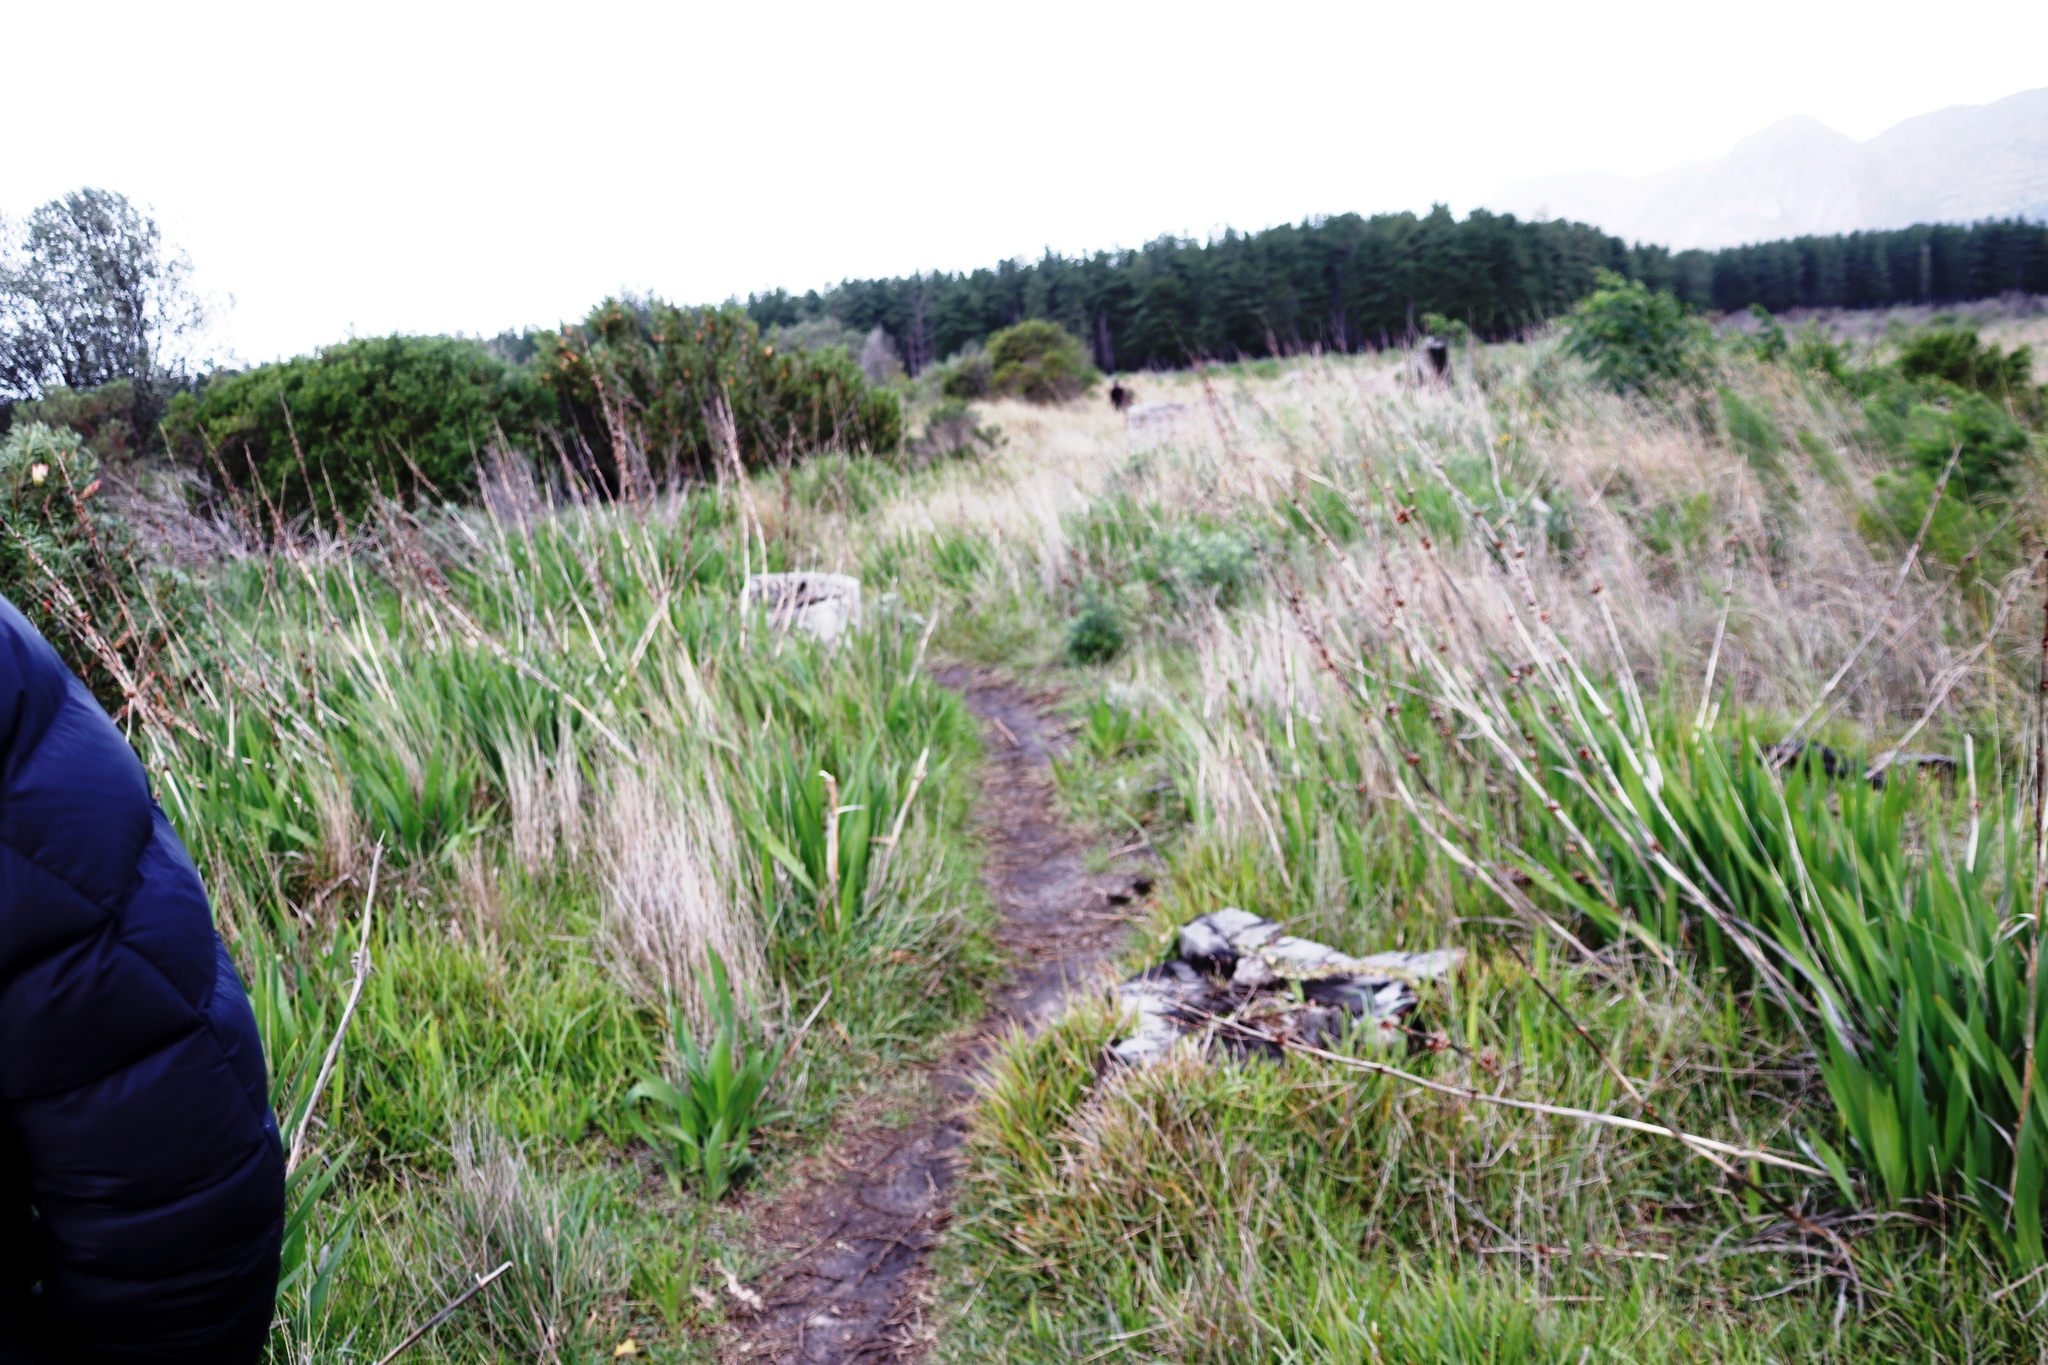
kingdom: Plantae
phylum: Tracheophyta
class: Liliopsida
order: Asparagales
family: Iridaceae
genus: Watsonia
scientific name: Watsonia meriana
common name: Bulbil bugle-lily
